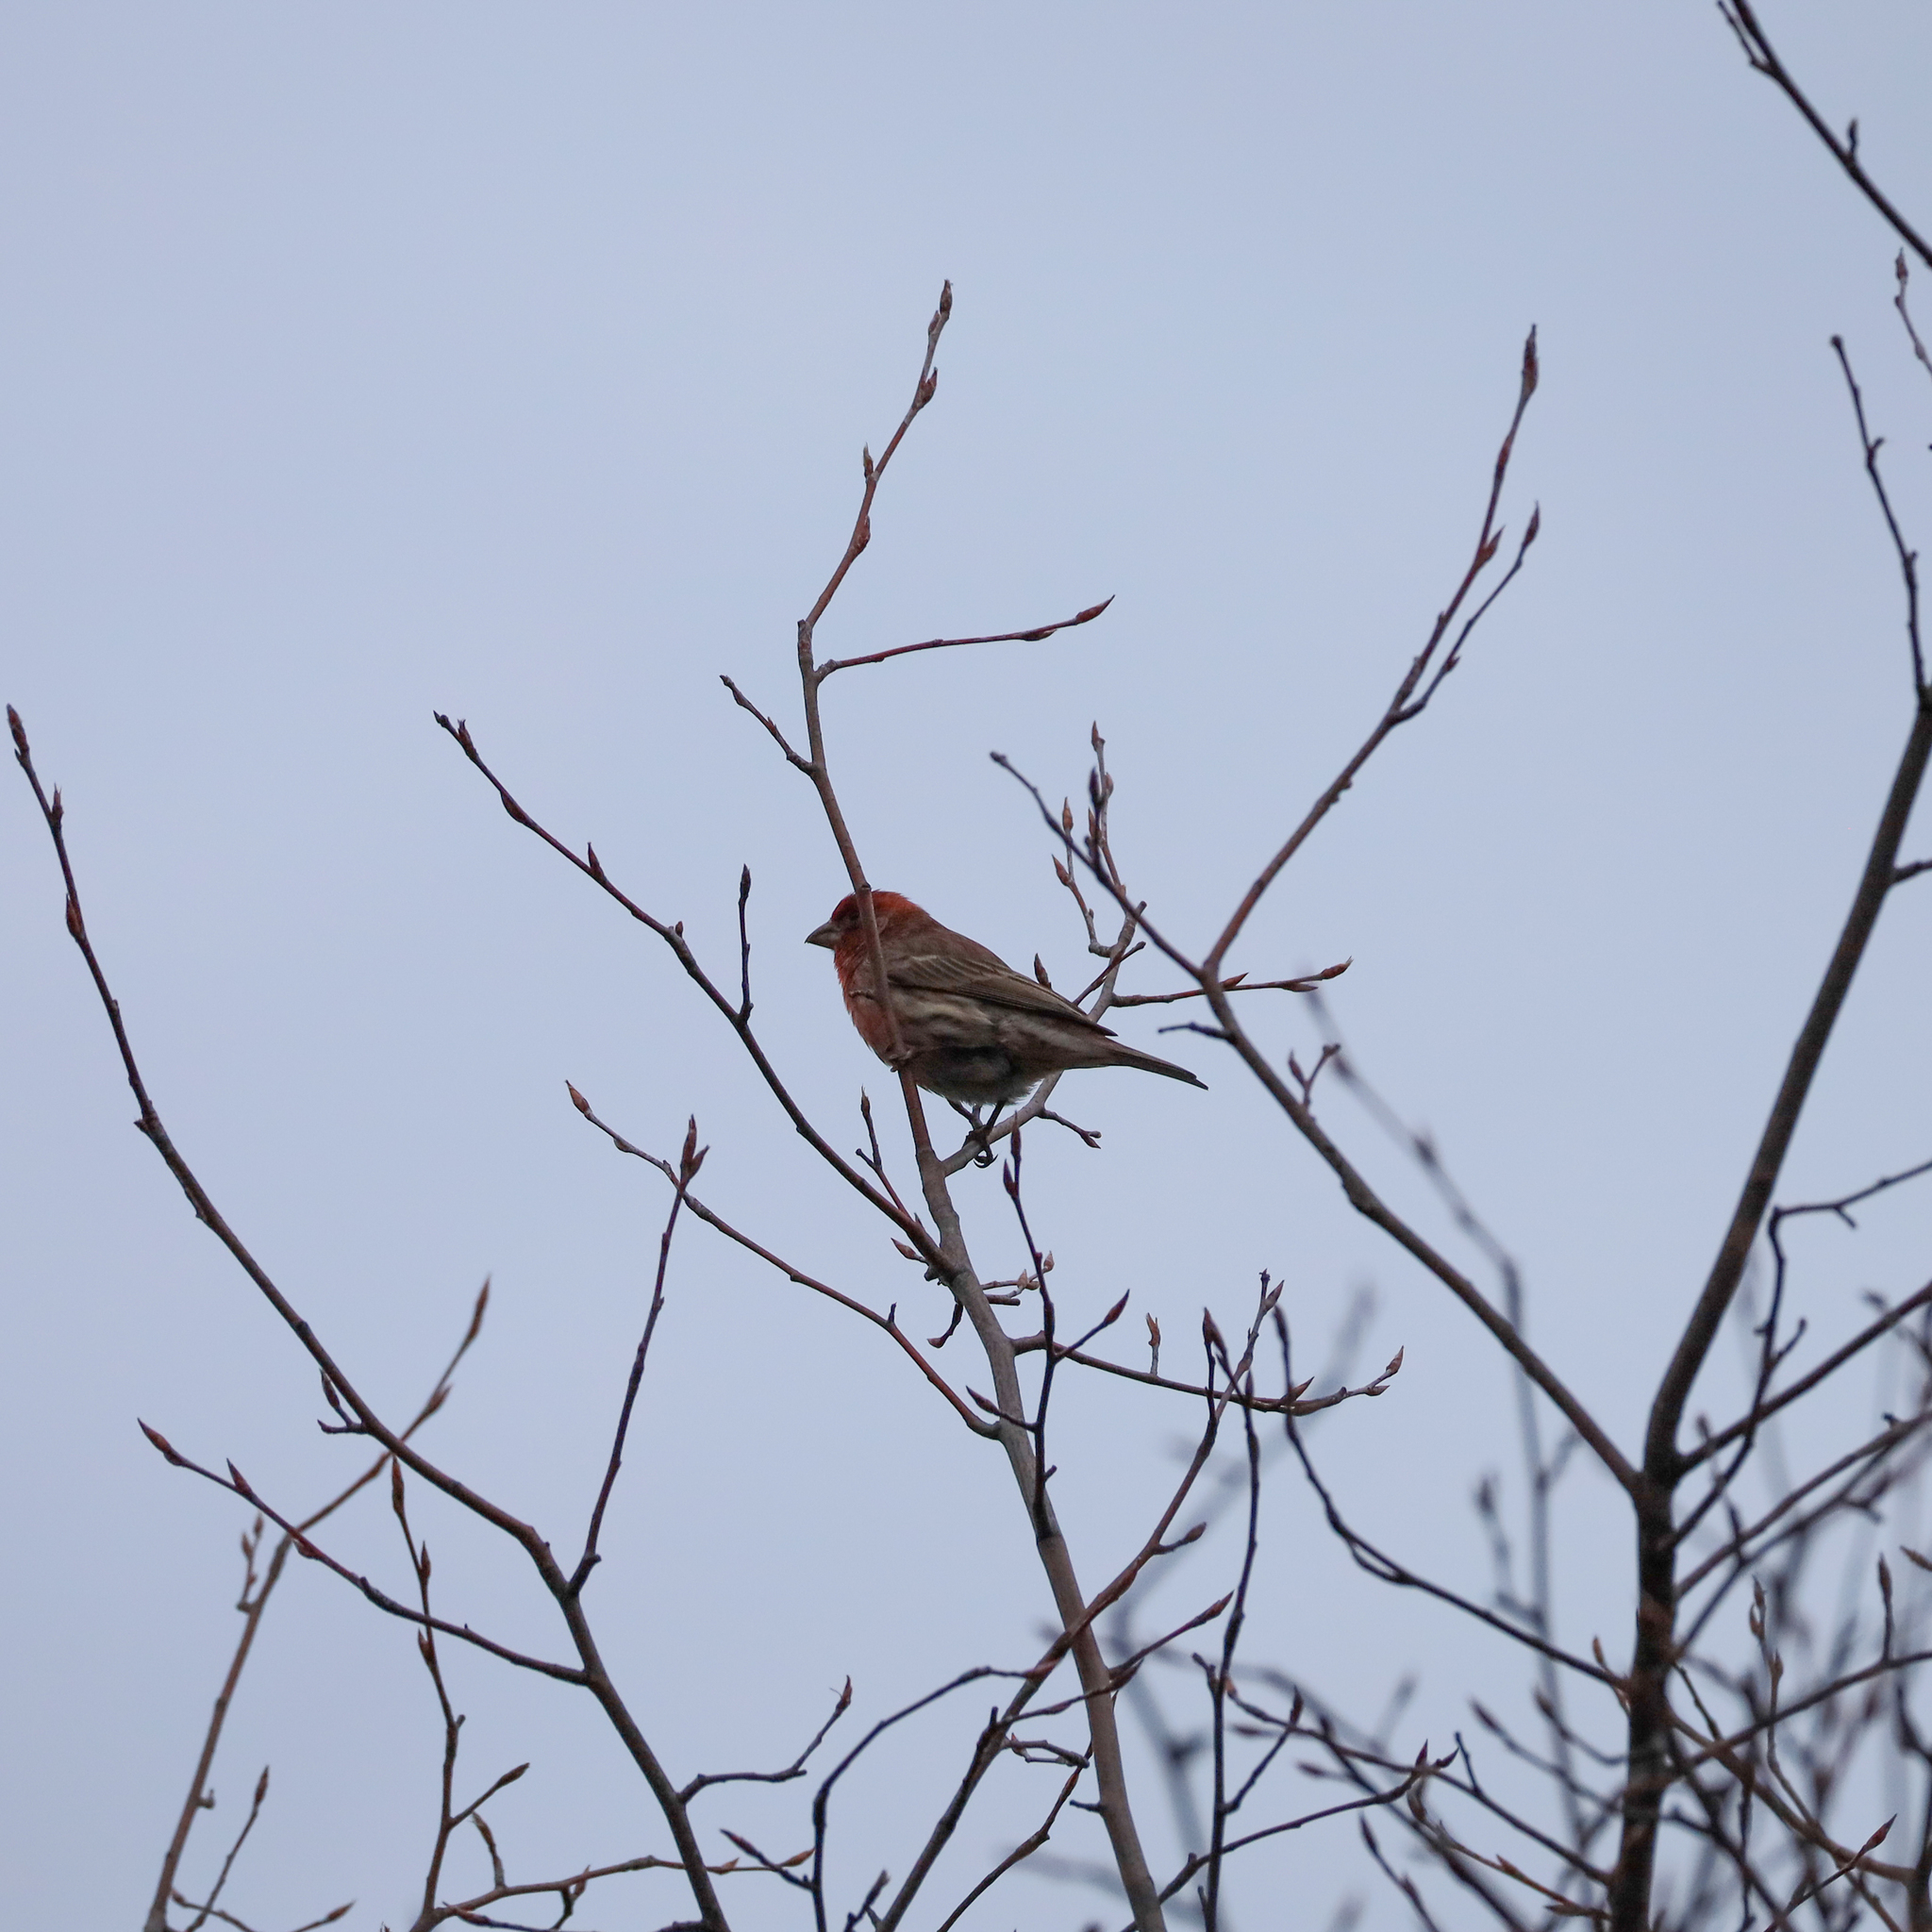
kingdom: Animalia
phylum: Chordata
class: Aves
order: Passeriformes
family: Fringillidae
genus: Haemorhous
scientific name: Haemorhous mexicanus
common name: House finch
